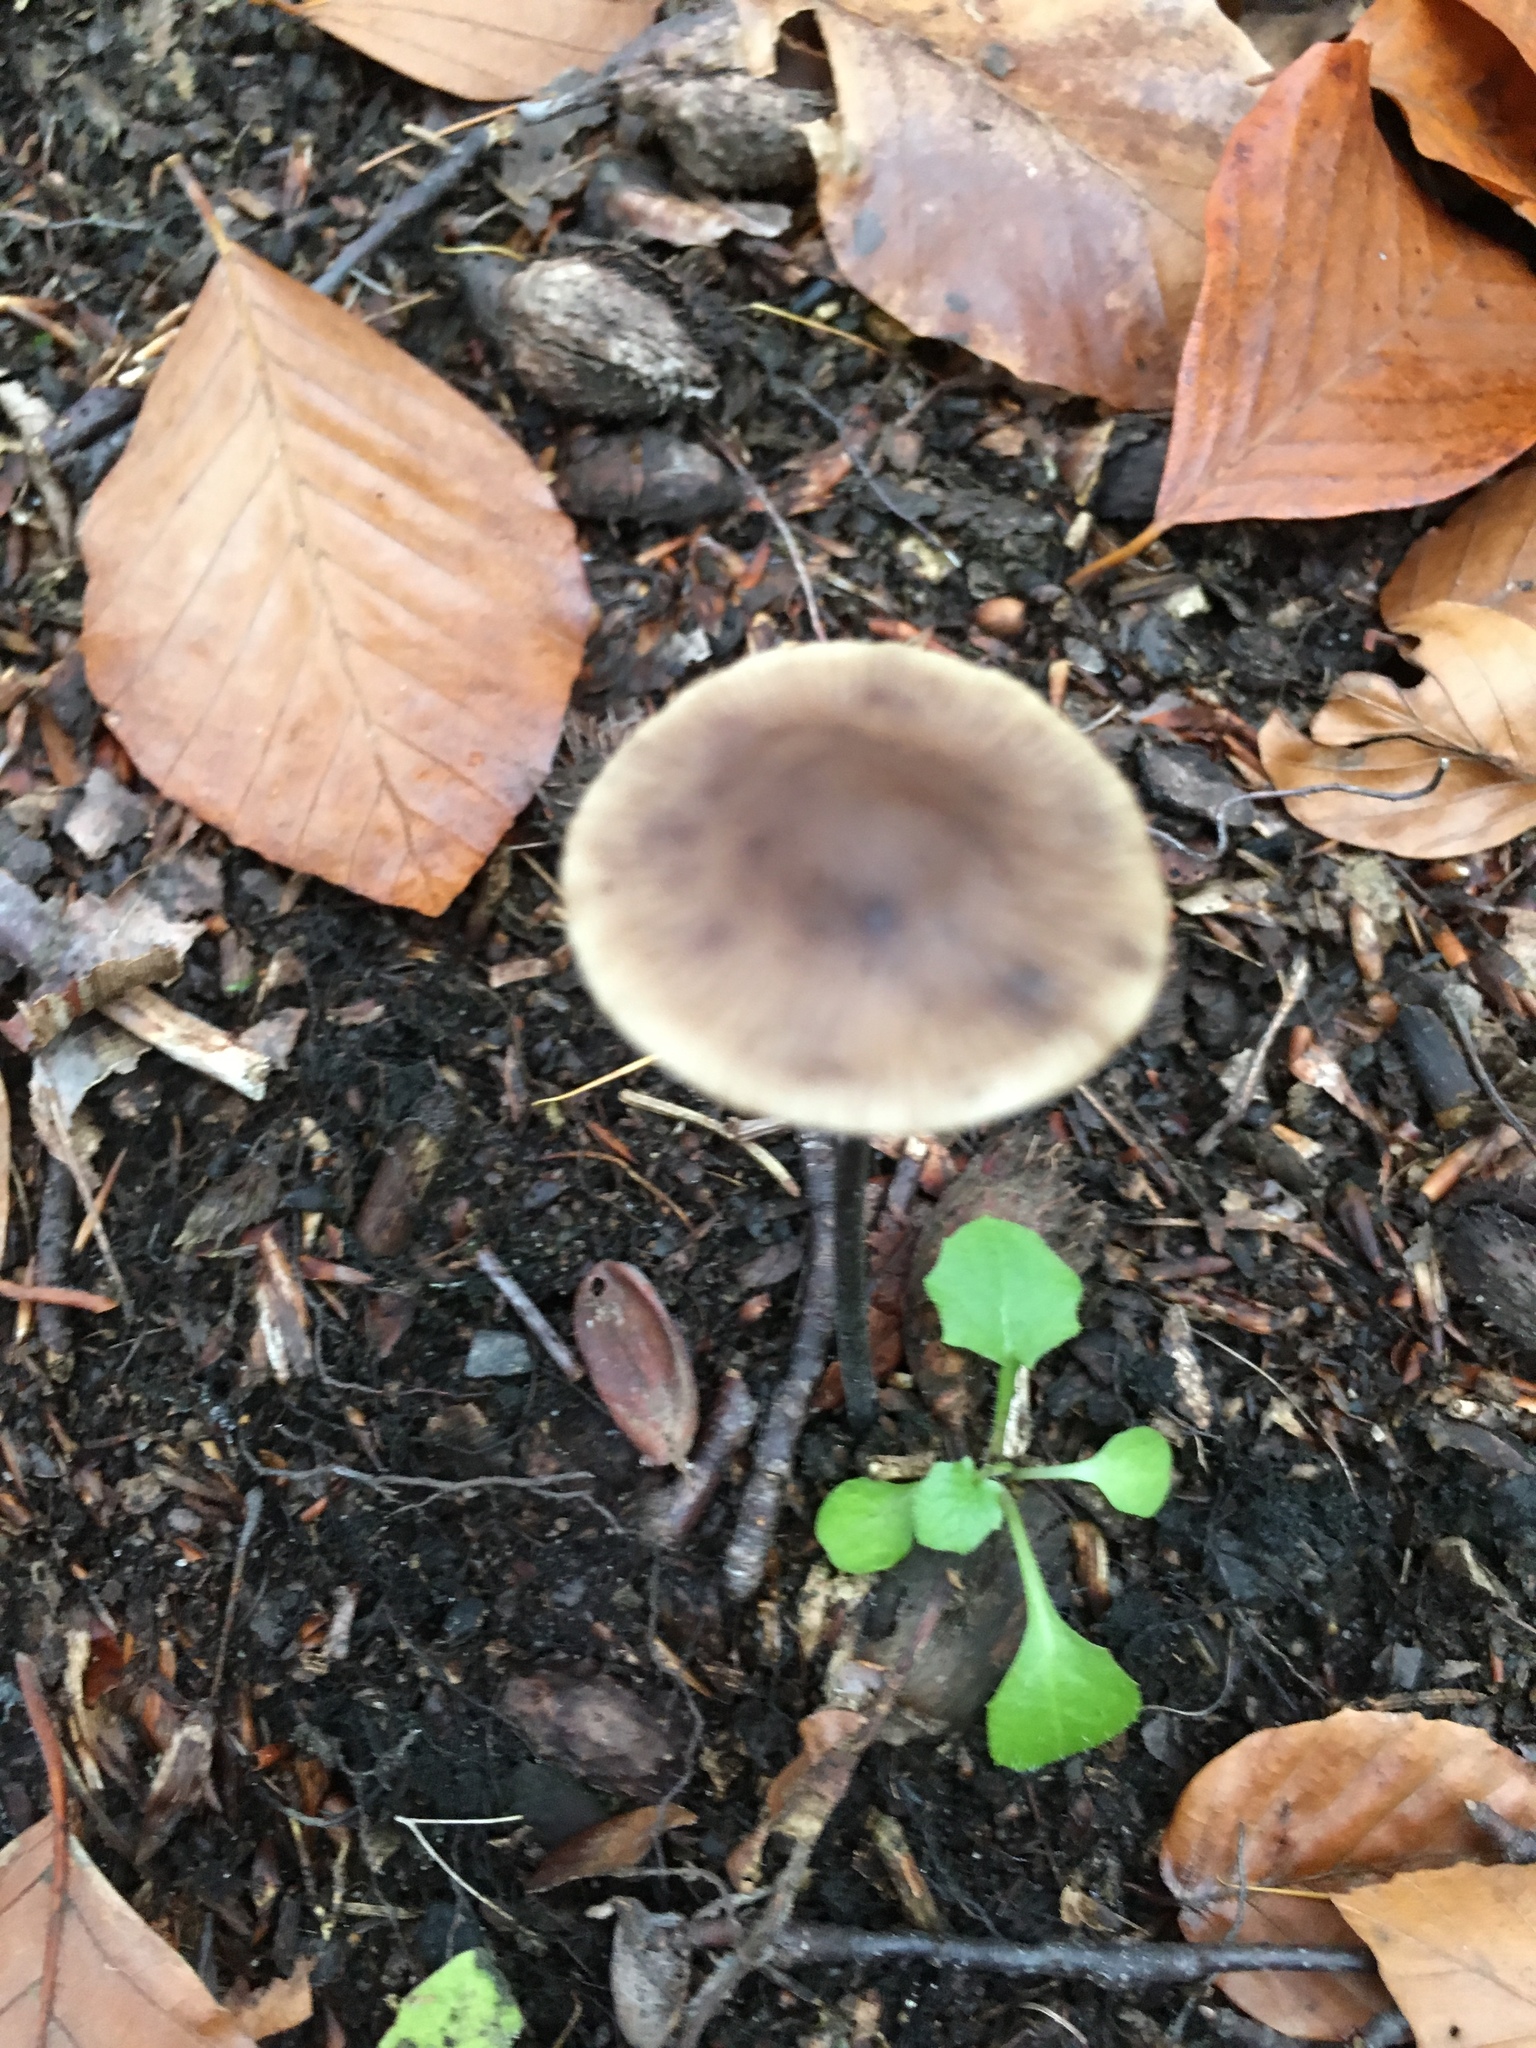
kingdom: Fungi
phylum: Basidiomycota
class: Agaricomycetes
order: Agaricales
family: Omphalotaceae
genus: Mycetinis
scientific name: Mycetinis alliaceus
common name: Garlic parachute
